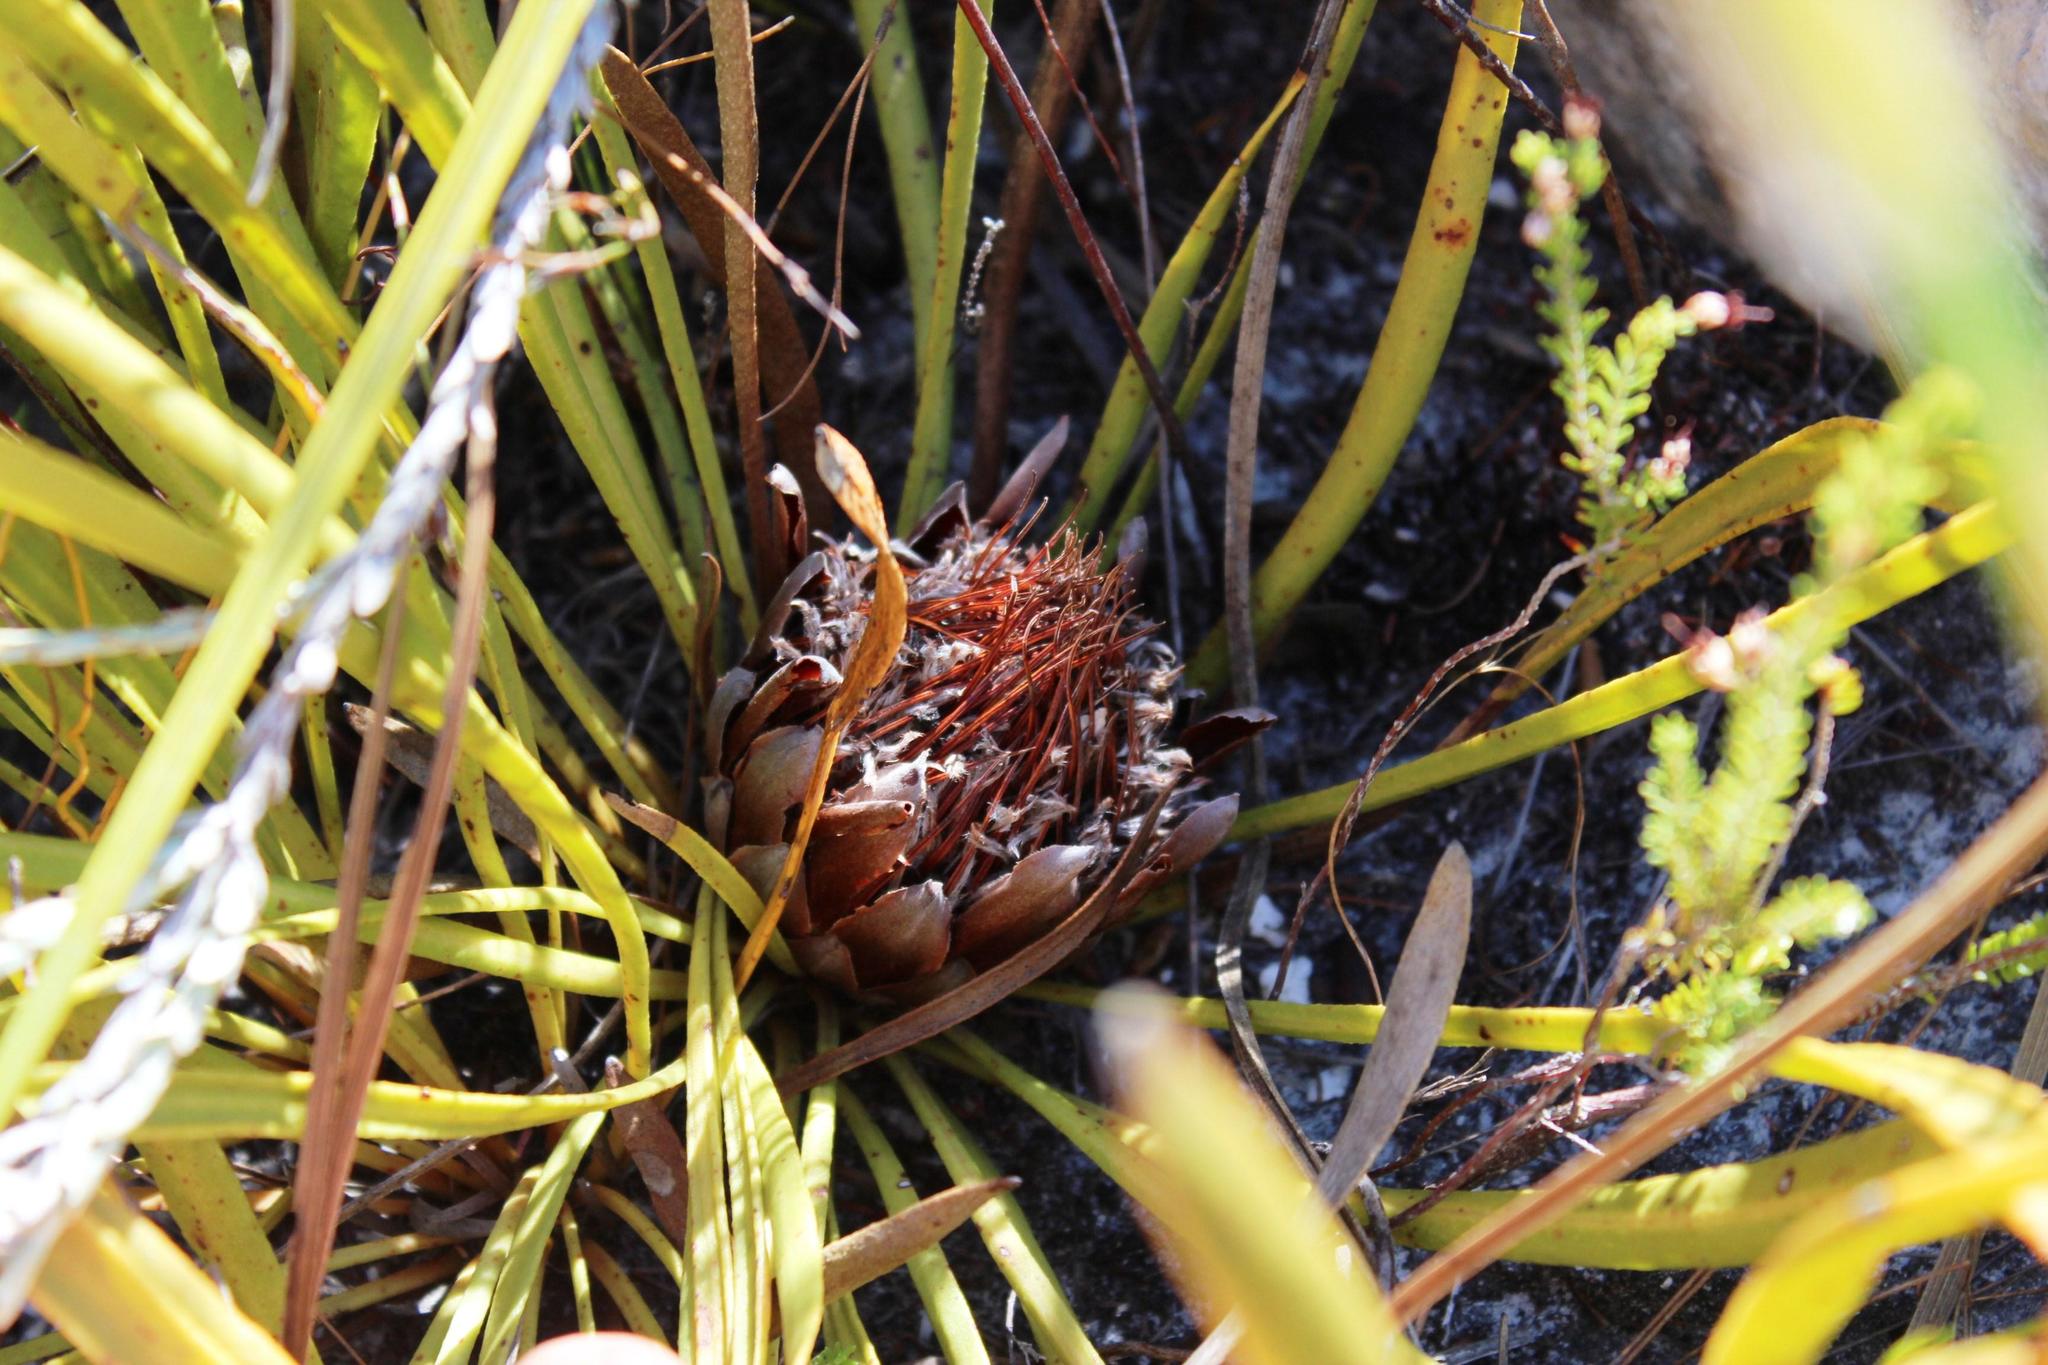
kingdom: Plantae
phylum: Tracheophyta
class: Magnoliopsida
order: Proteales
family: Proteaceae
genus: Protea
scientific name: Protea scabra
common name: Sandpaper-leaf sugarbush
